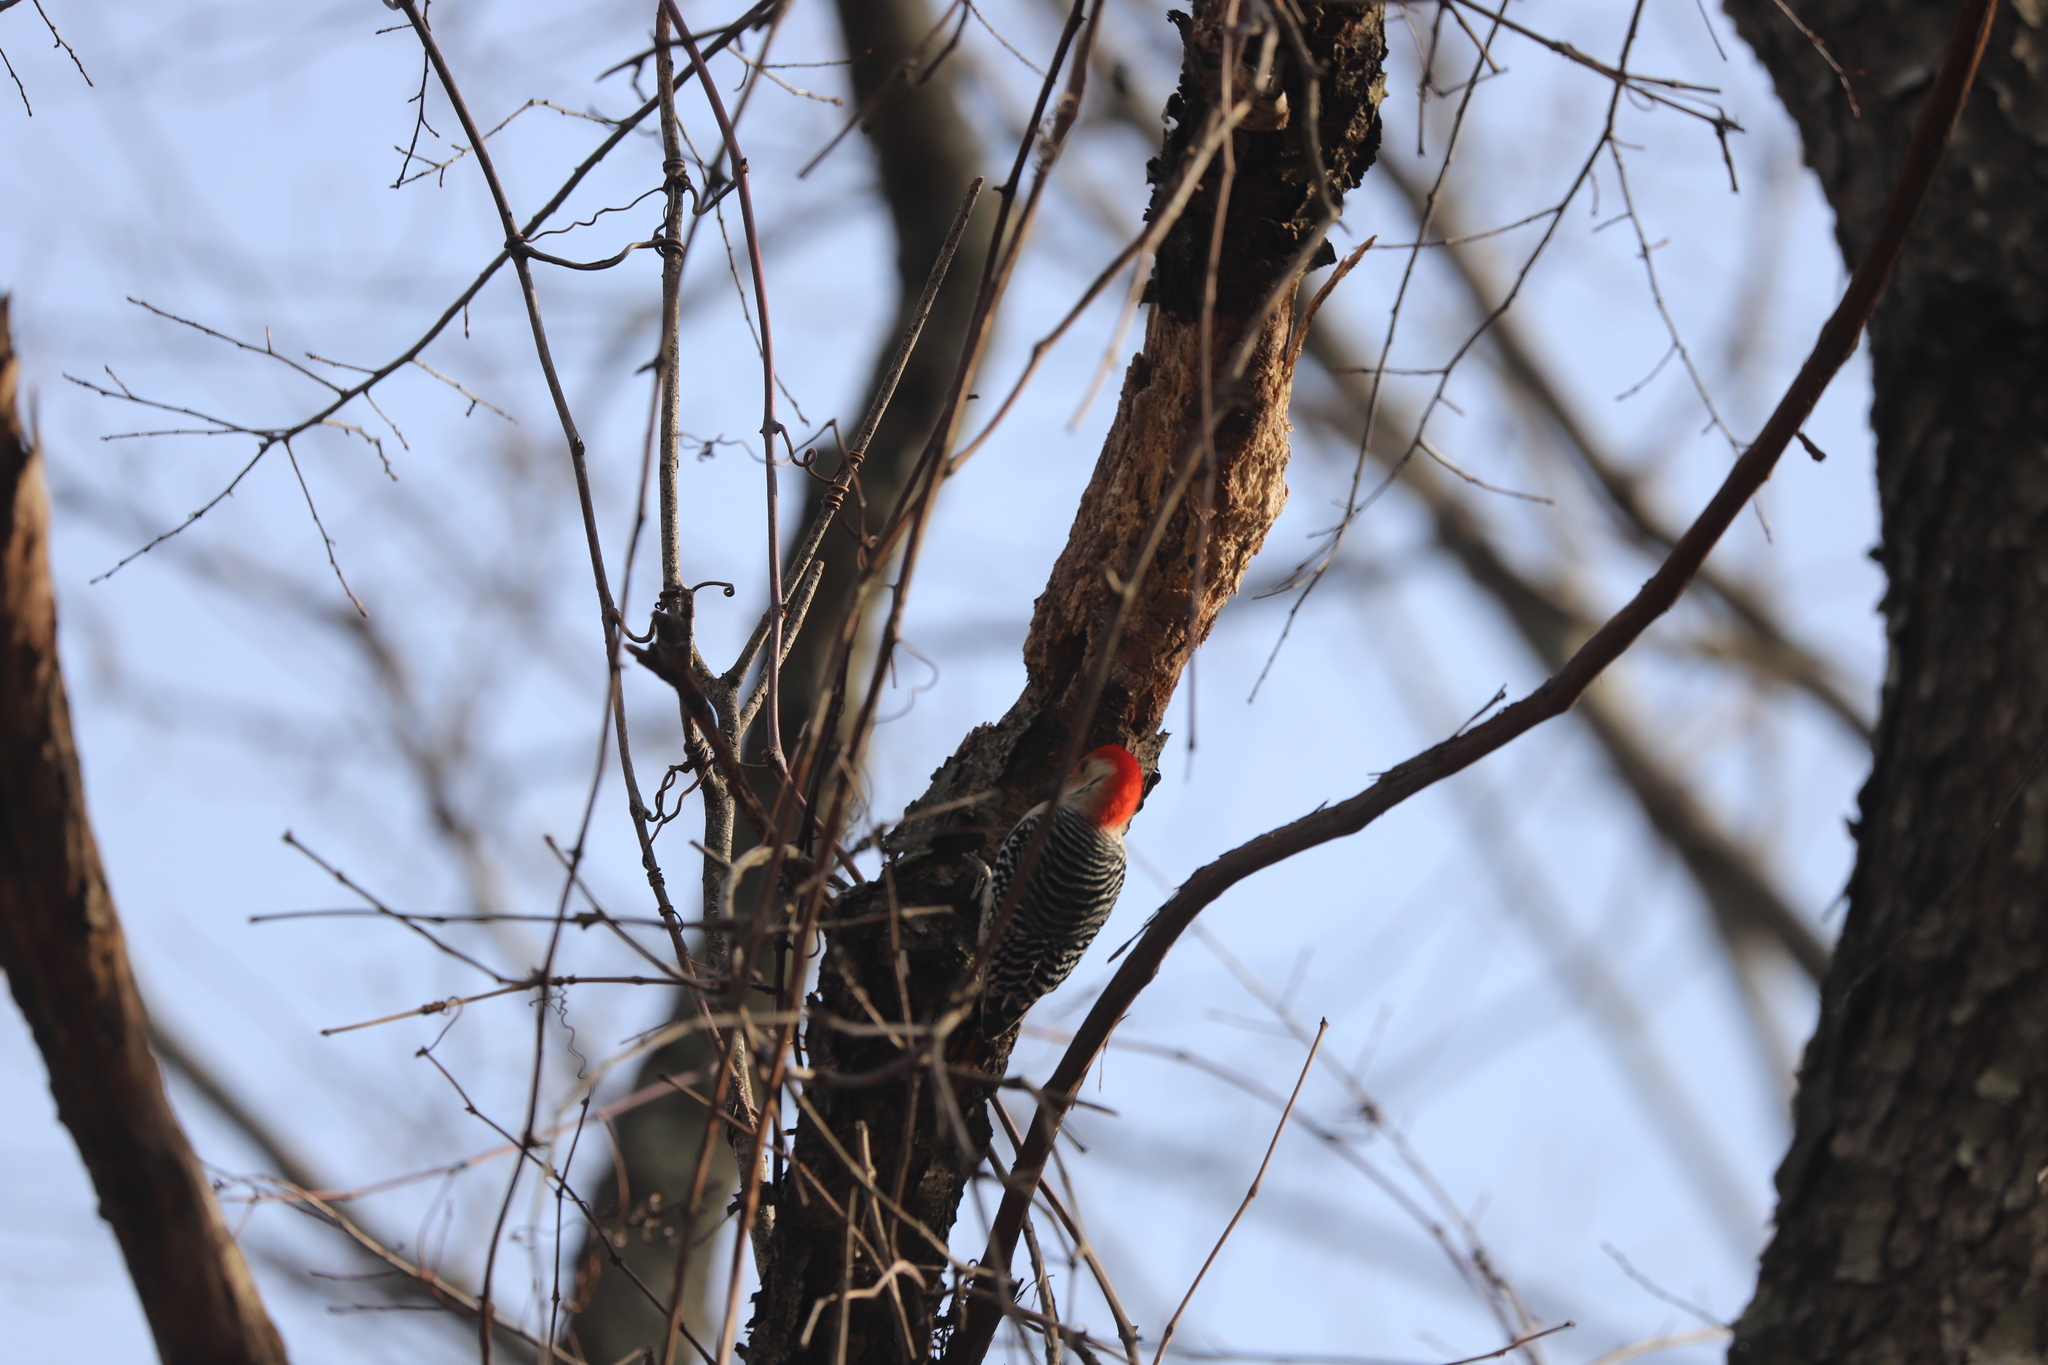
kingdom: Animalia
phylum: Chordata
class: Aves
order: Piciformes
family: Picidae
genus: Melanerpes
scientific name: Melanerpes carolinus
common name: Red-bellied woodpecker
